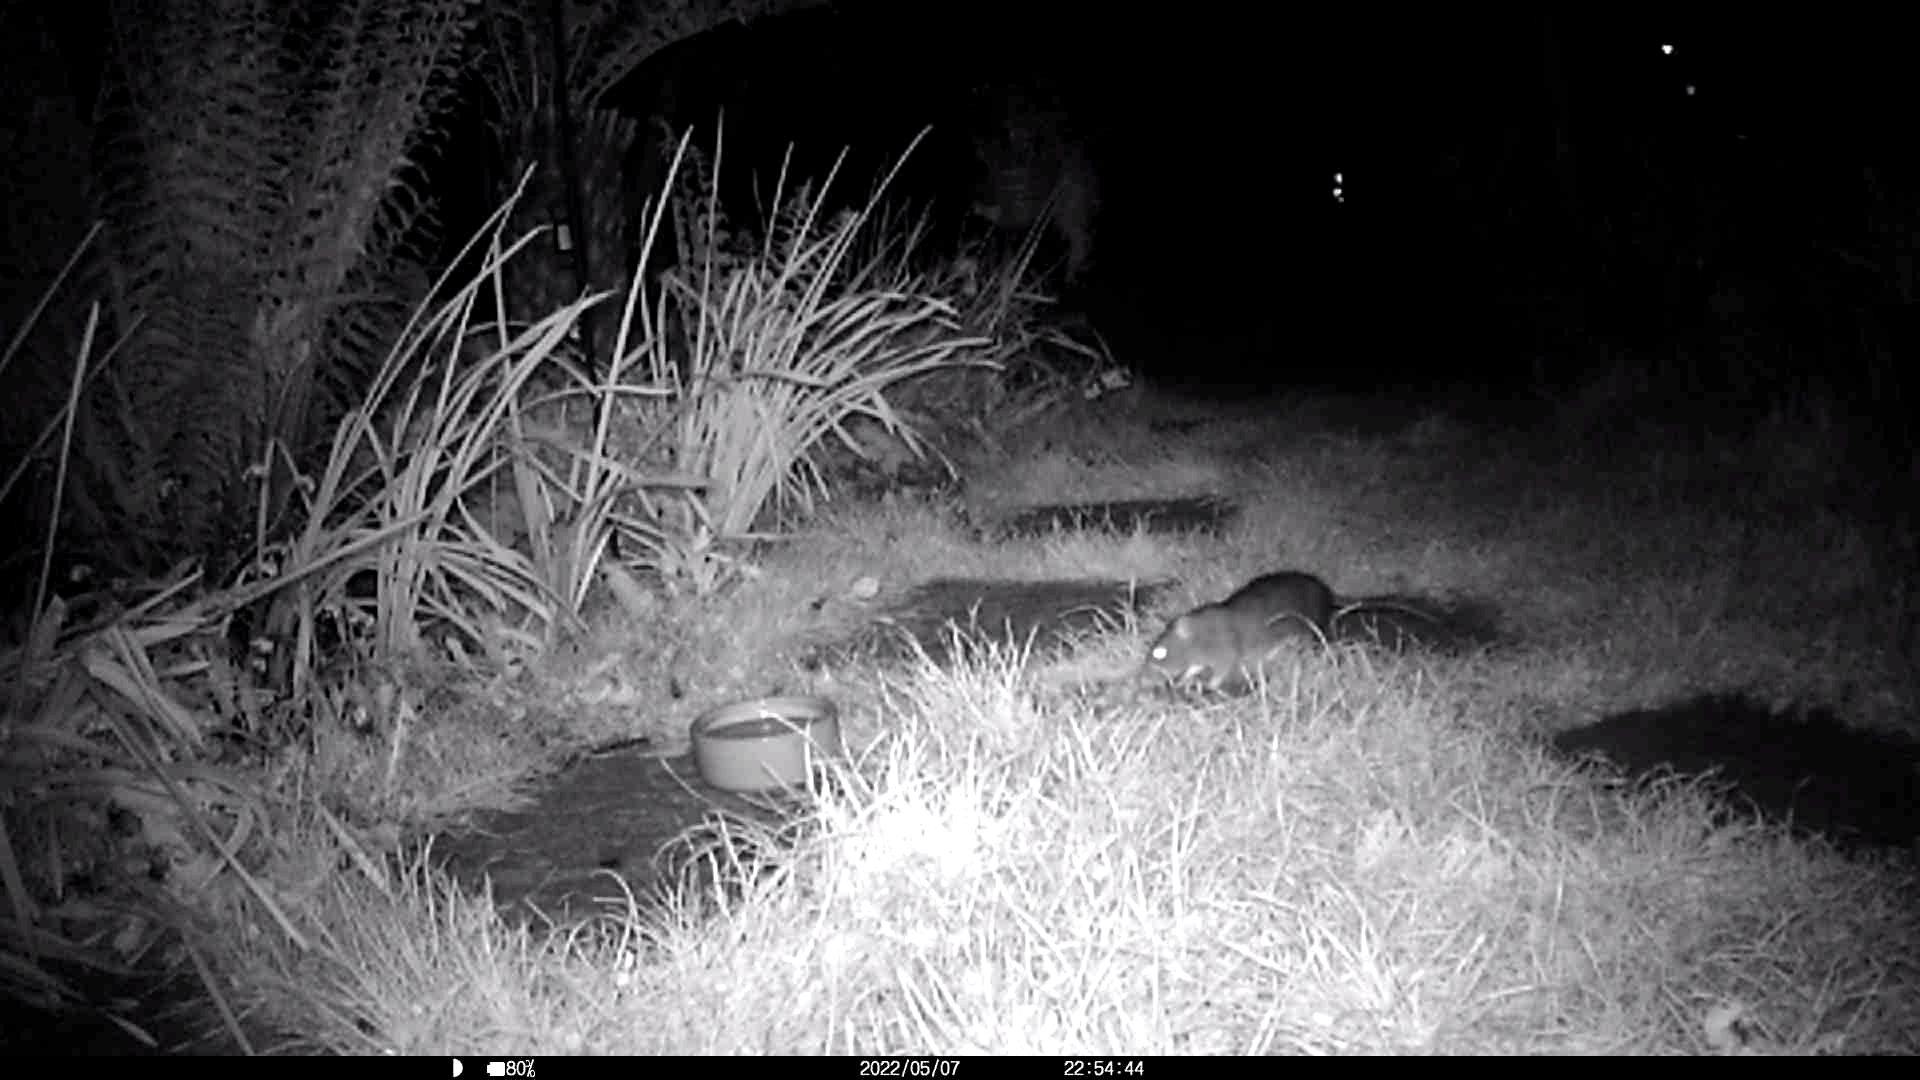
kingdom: Animalia
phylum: Chordata
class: Mammalia
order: Rodentia
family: Muridae
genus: Rattus
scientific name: Rattus norvegicus
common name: Brown rat
